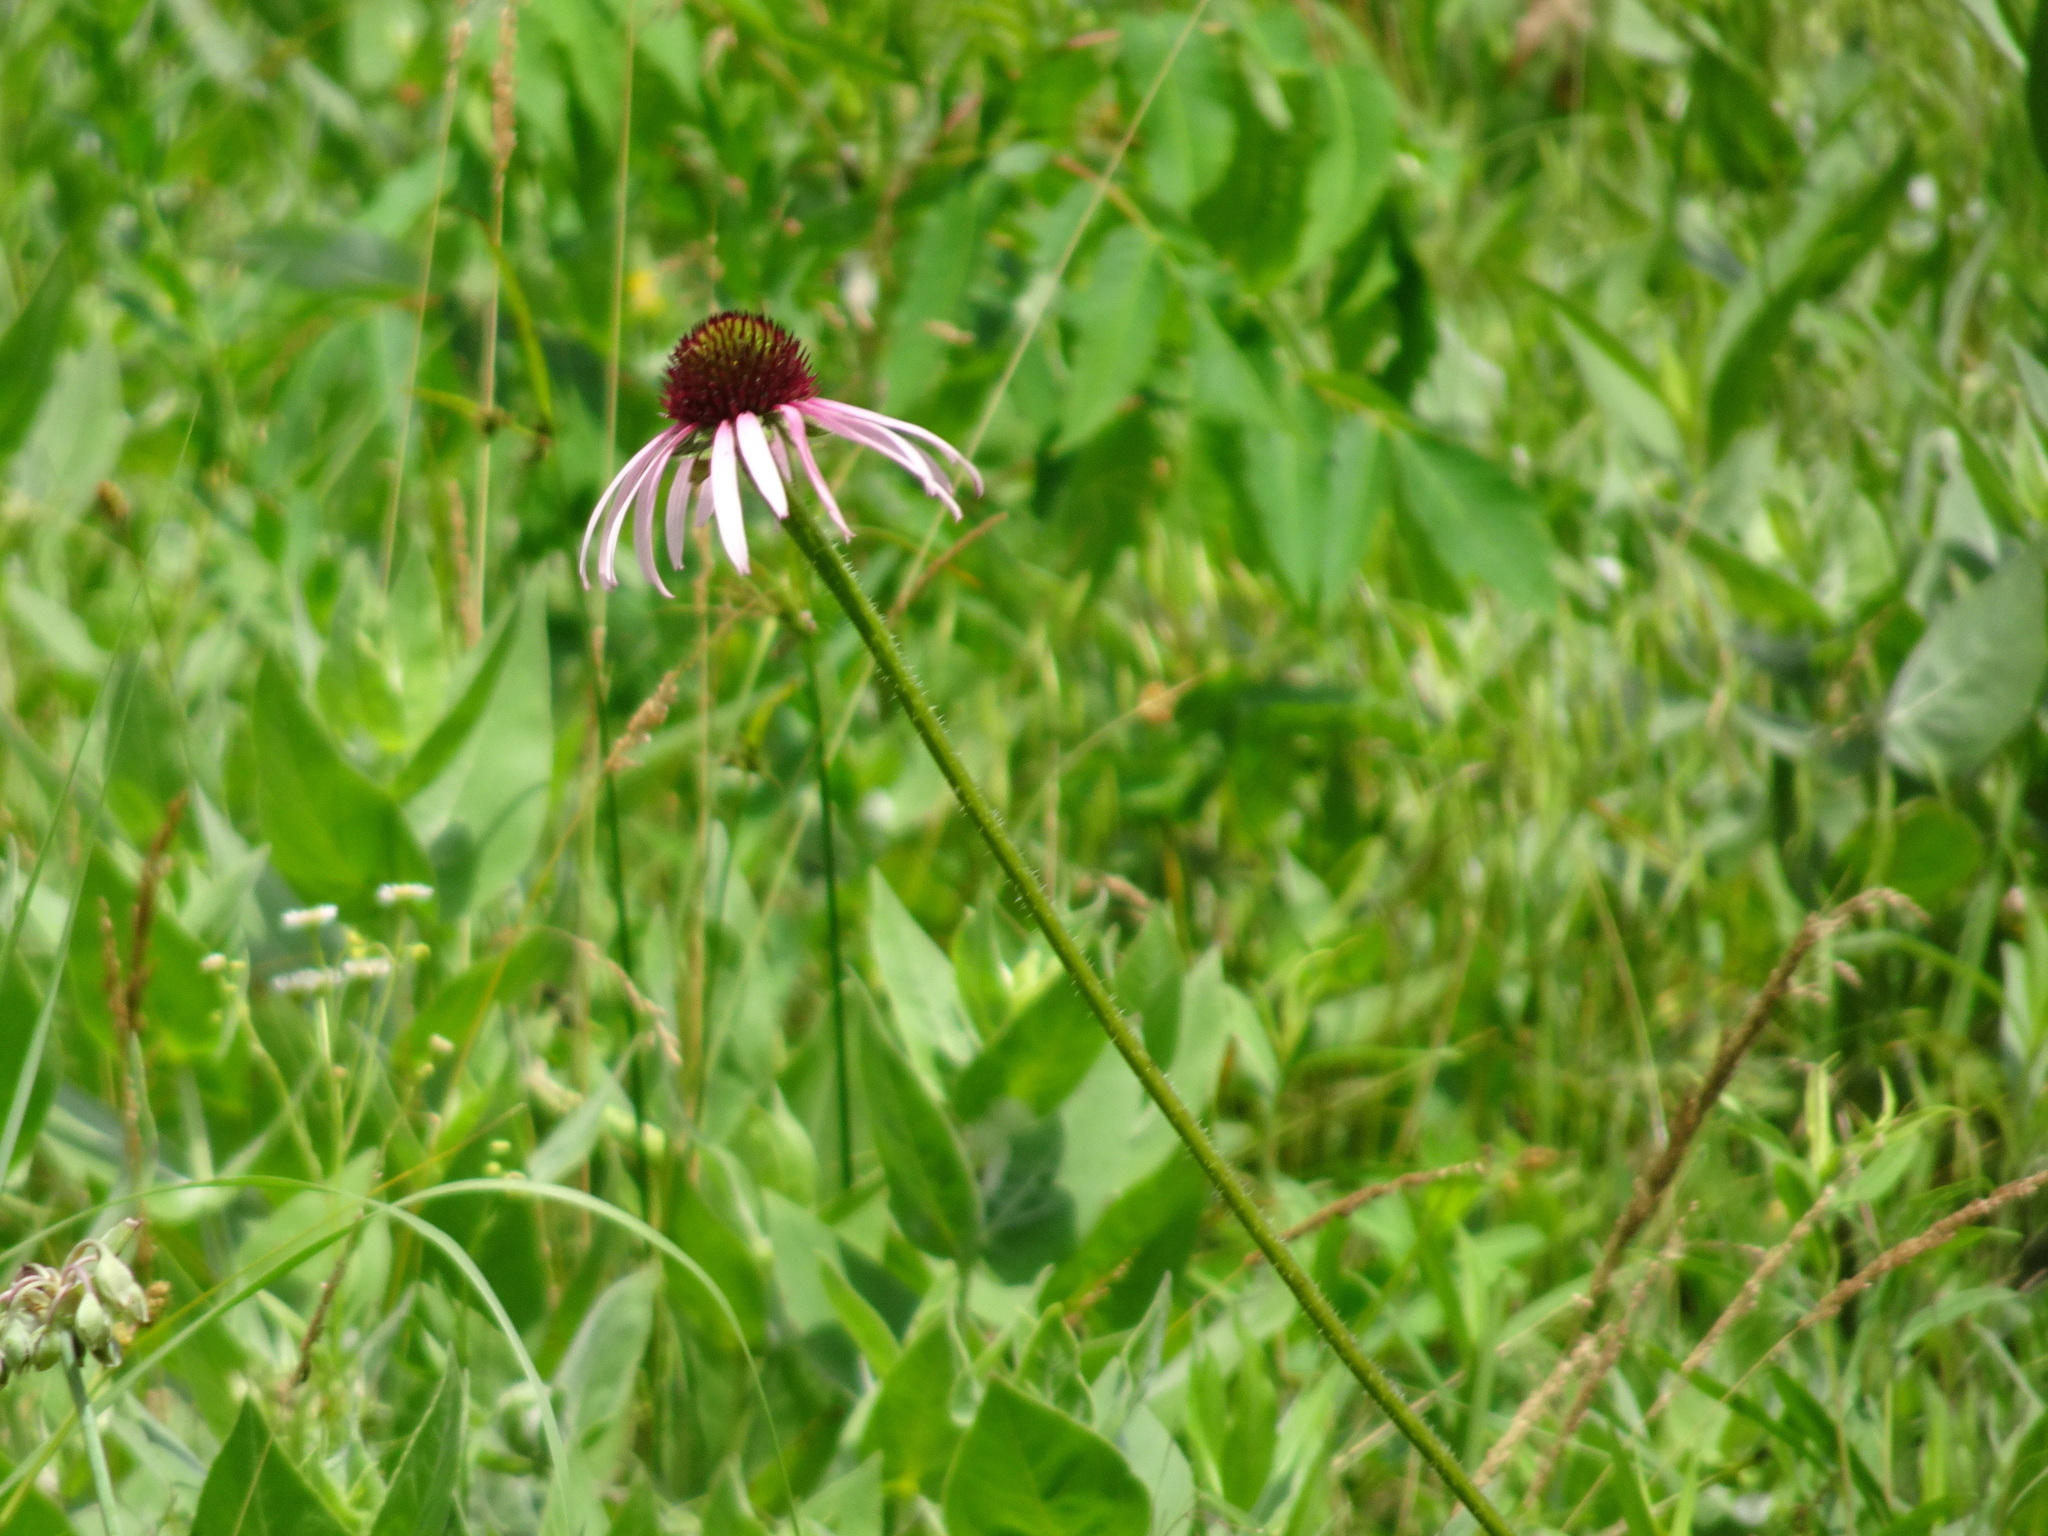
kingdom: Plantae
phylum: Tracheophyta
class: Magnoliopsida
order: Asterales
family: Asteraceae
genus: Echinacea
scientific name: Echinacea pallida
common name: Pale echinacea
